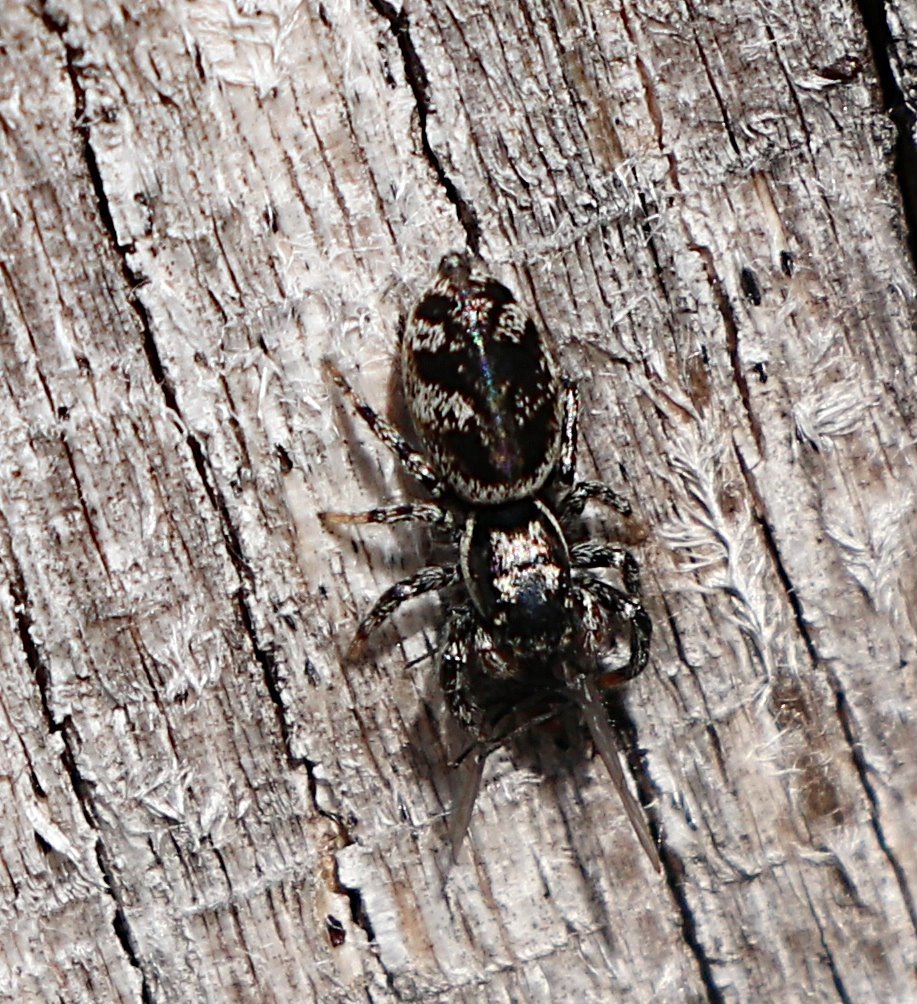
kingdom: Animalia
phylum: Arthropoda
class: Arachnida
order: Araneae
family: Salticidae
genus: Salticus
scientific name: Salticus scenicus
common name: Zebra jumper
